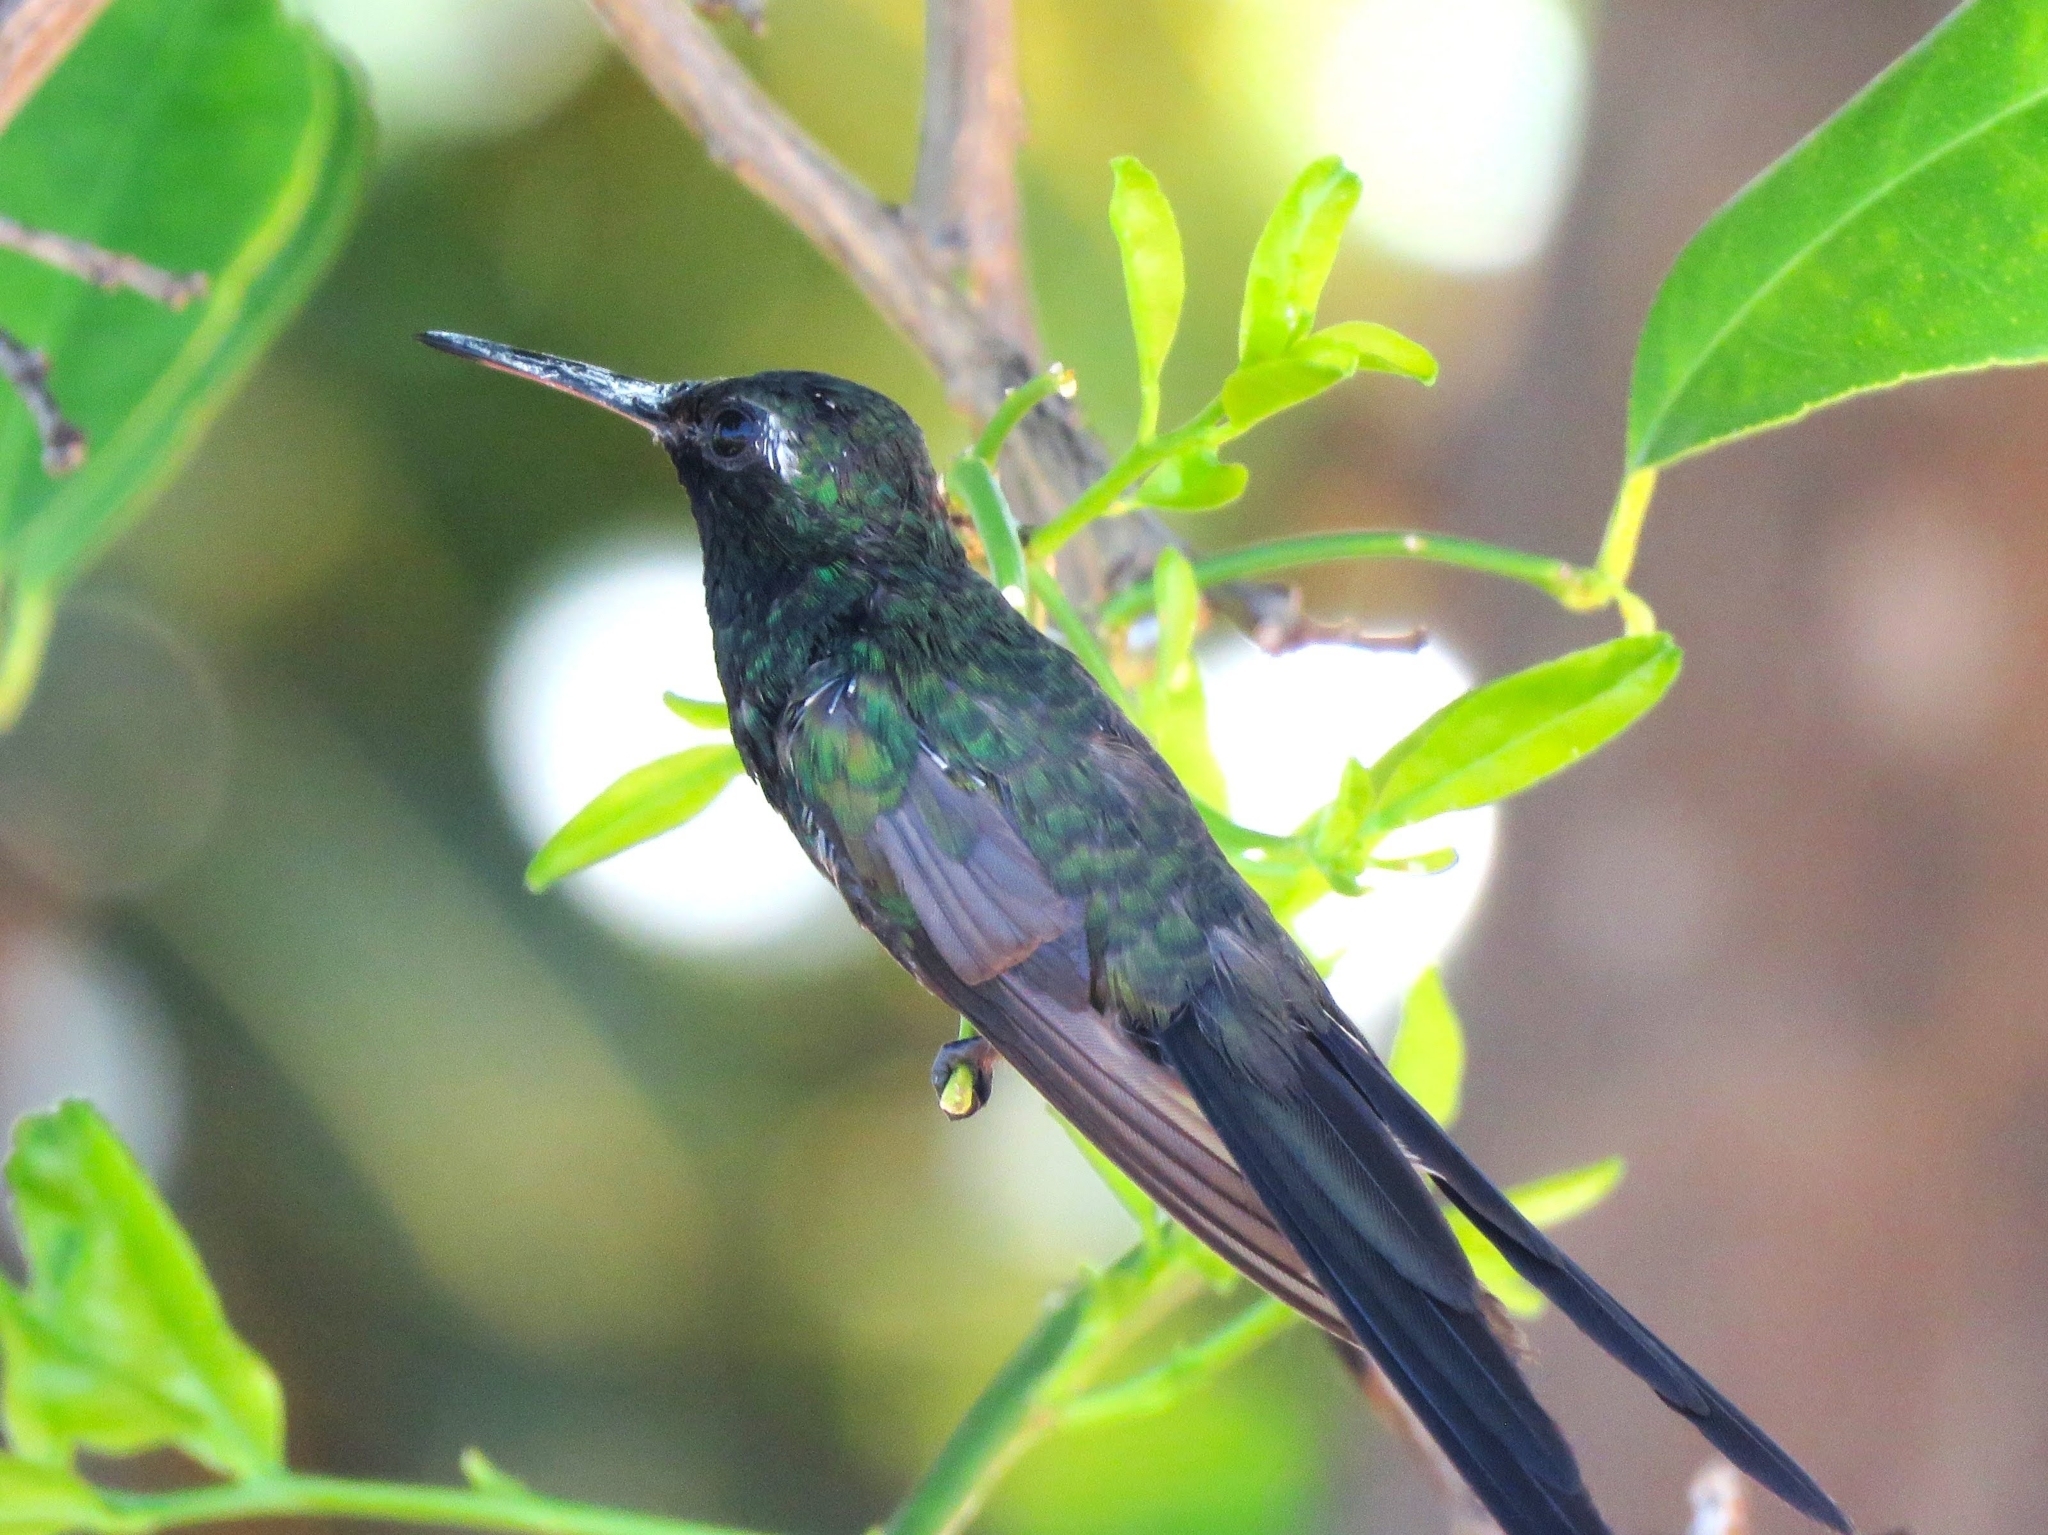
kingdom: Animalia
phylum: Chordata
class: Aves
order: Apodiformes
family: Trochilidae
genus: Riccordia
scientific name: Riccordia ricordii
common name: Cuban emerald
